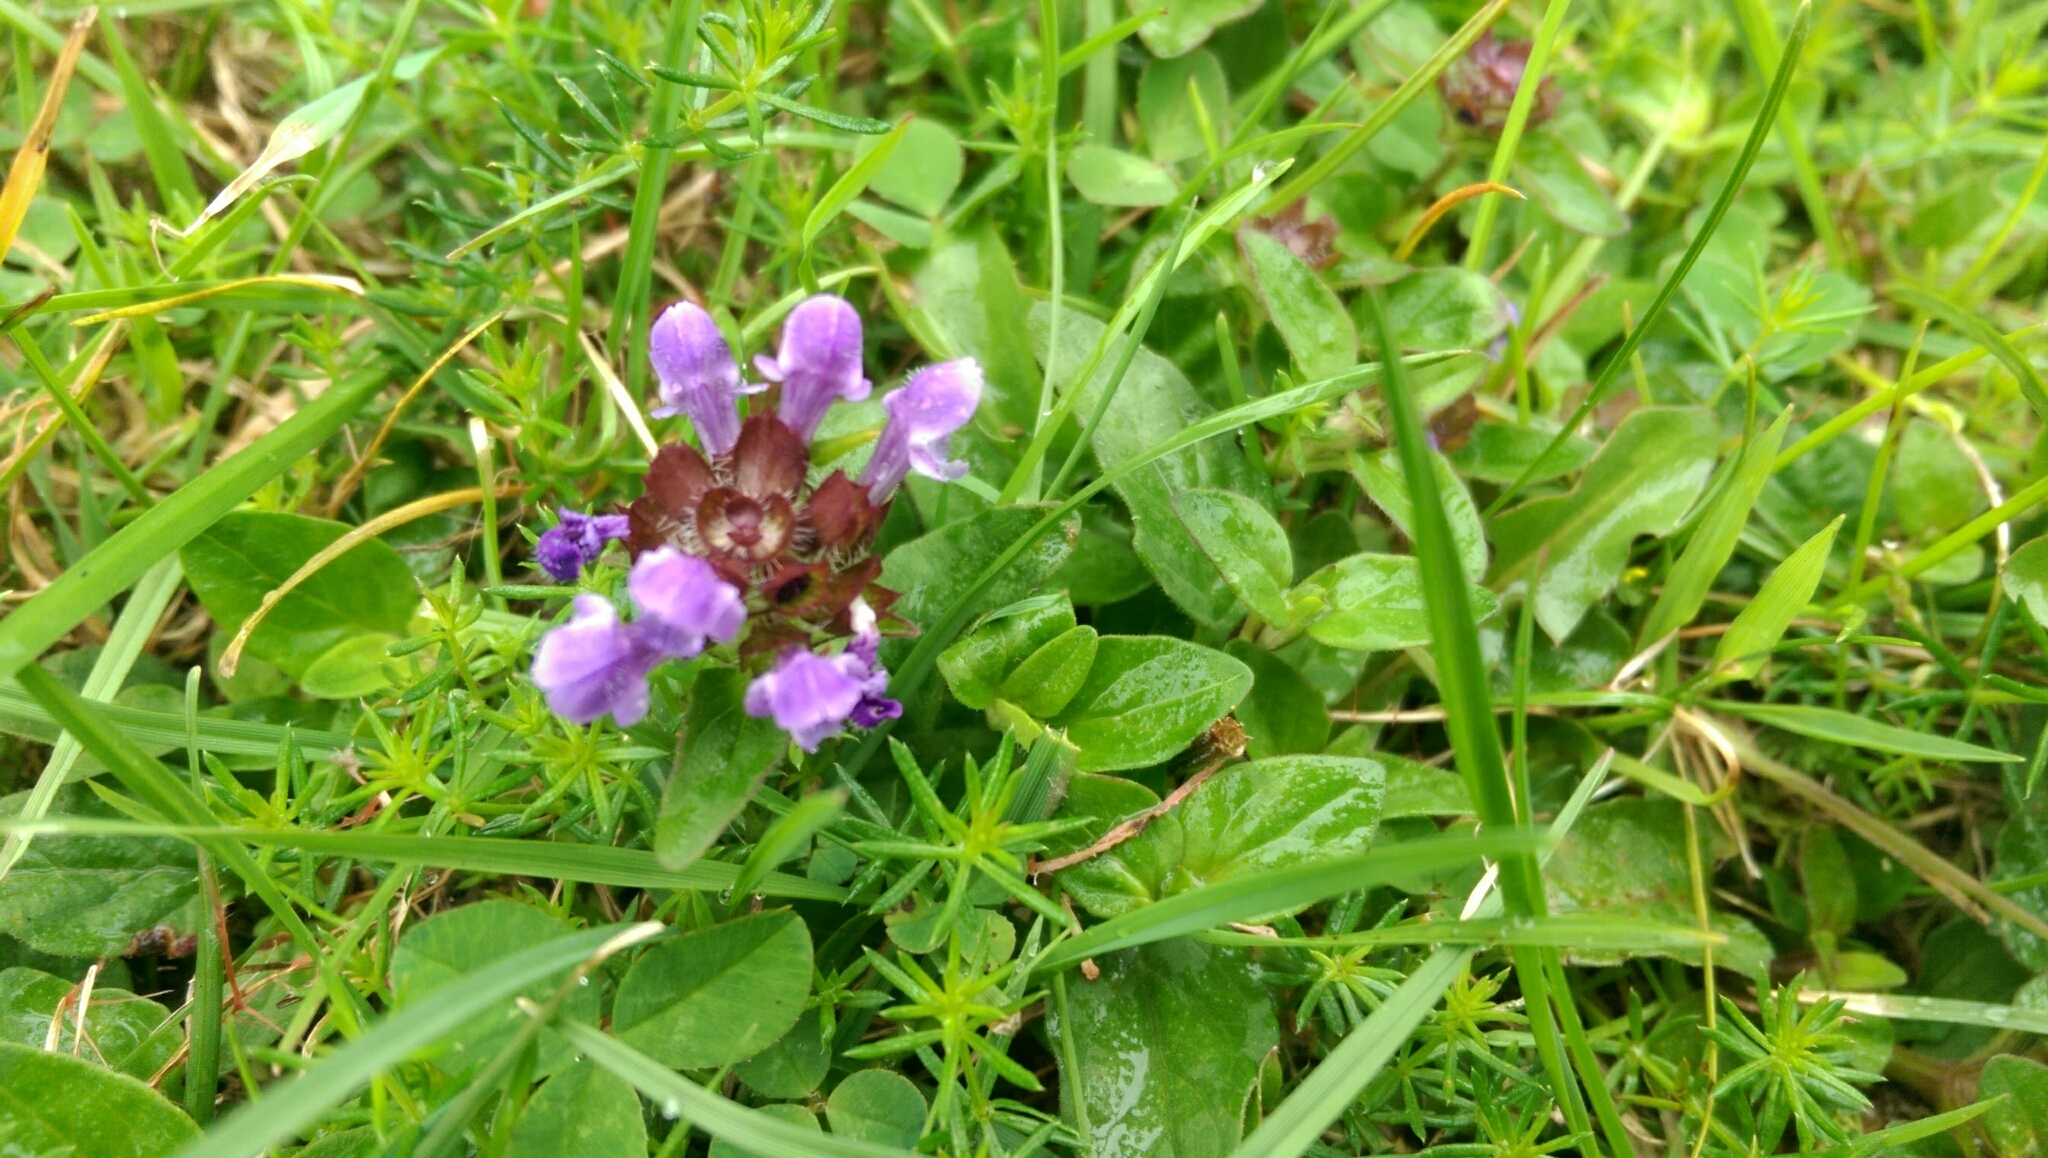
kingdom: Plantae
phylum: Tracheophyta
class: Magnoliopsida
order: Lamiales
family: Lamiaceae
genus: Prunella
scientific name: Prunella vulgaris
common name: Heal-all
